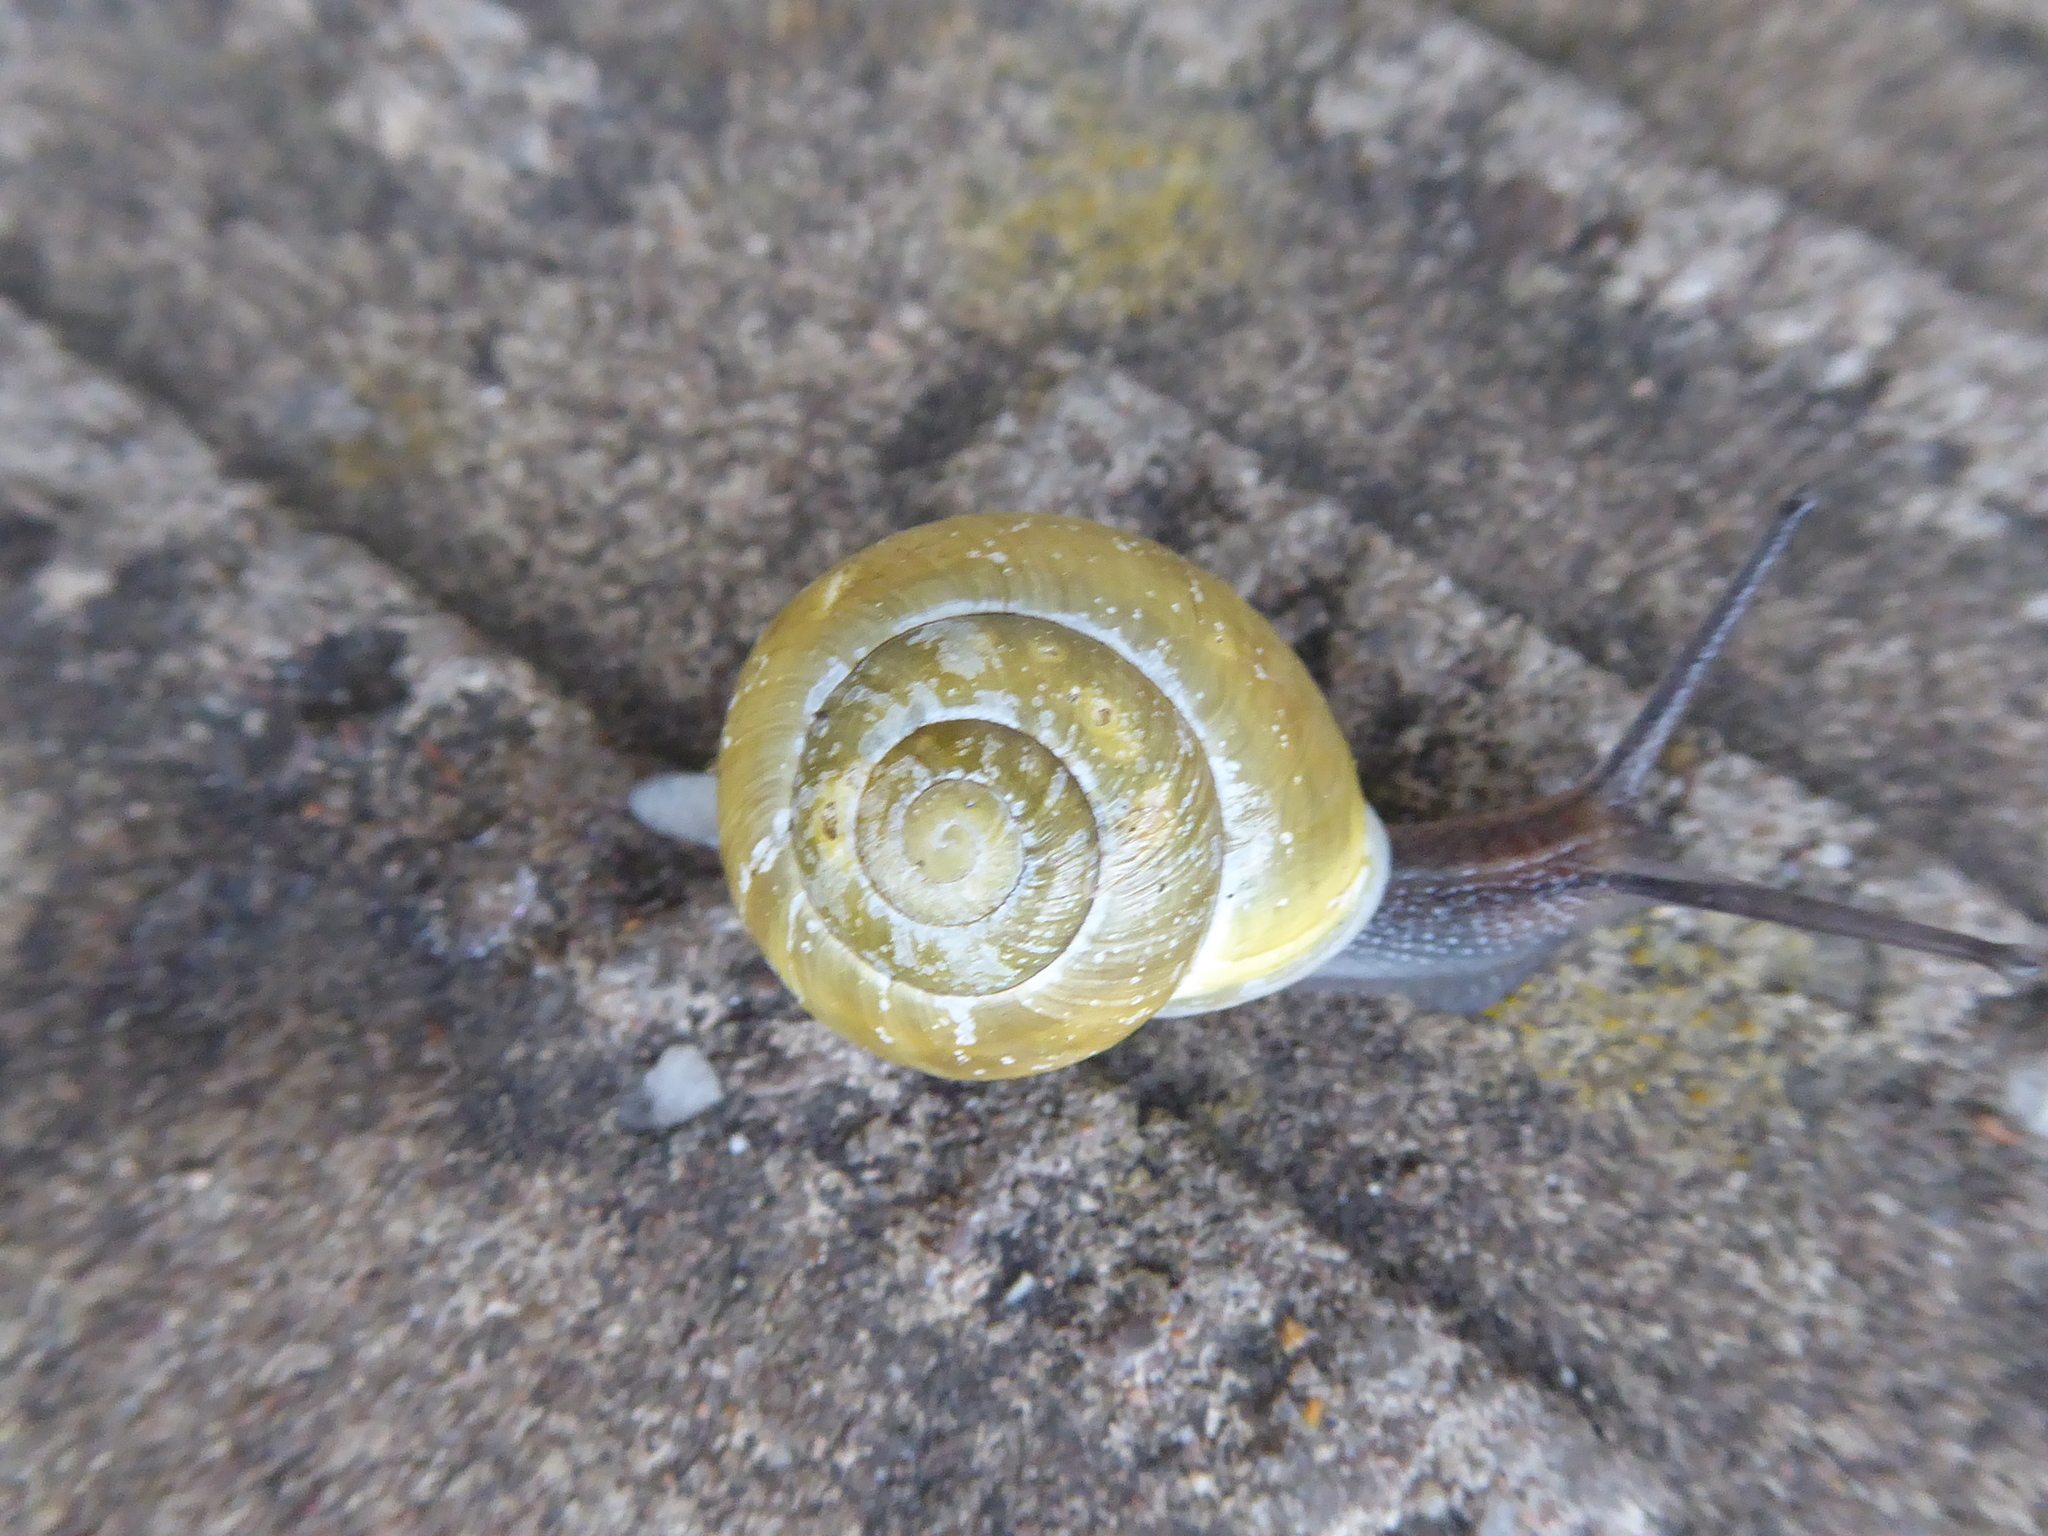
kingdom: Animalia
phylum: Mollusca
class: Gastropoda
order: Stylommatophora
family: Helicidae
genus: Cepaea
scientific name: Cepaea hortensis
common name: White-lip gardensnail
